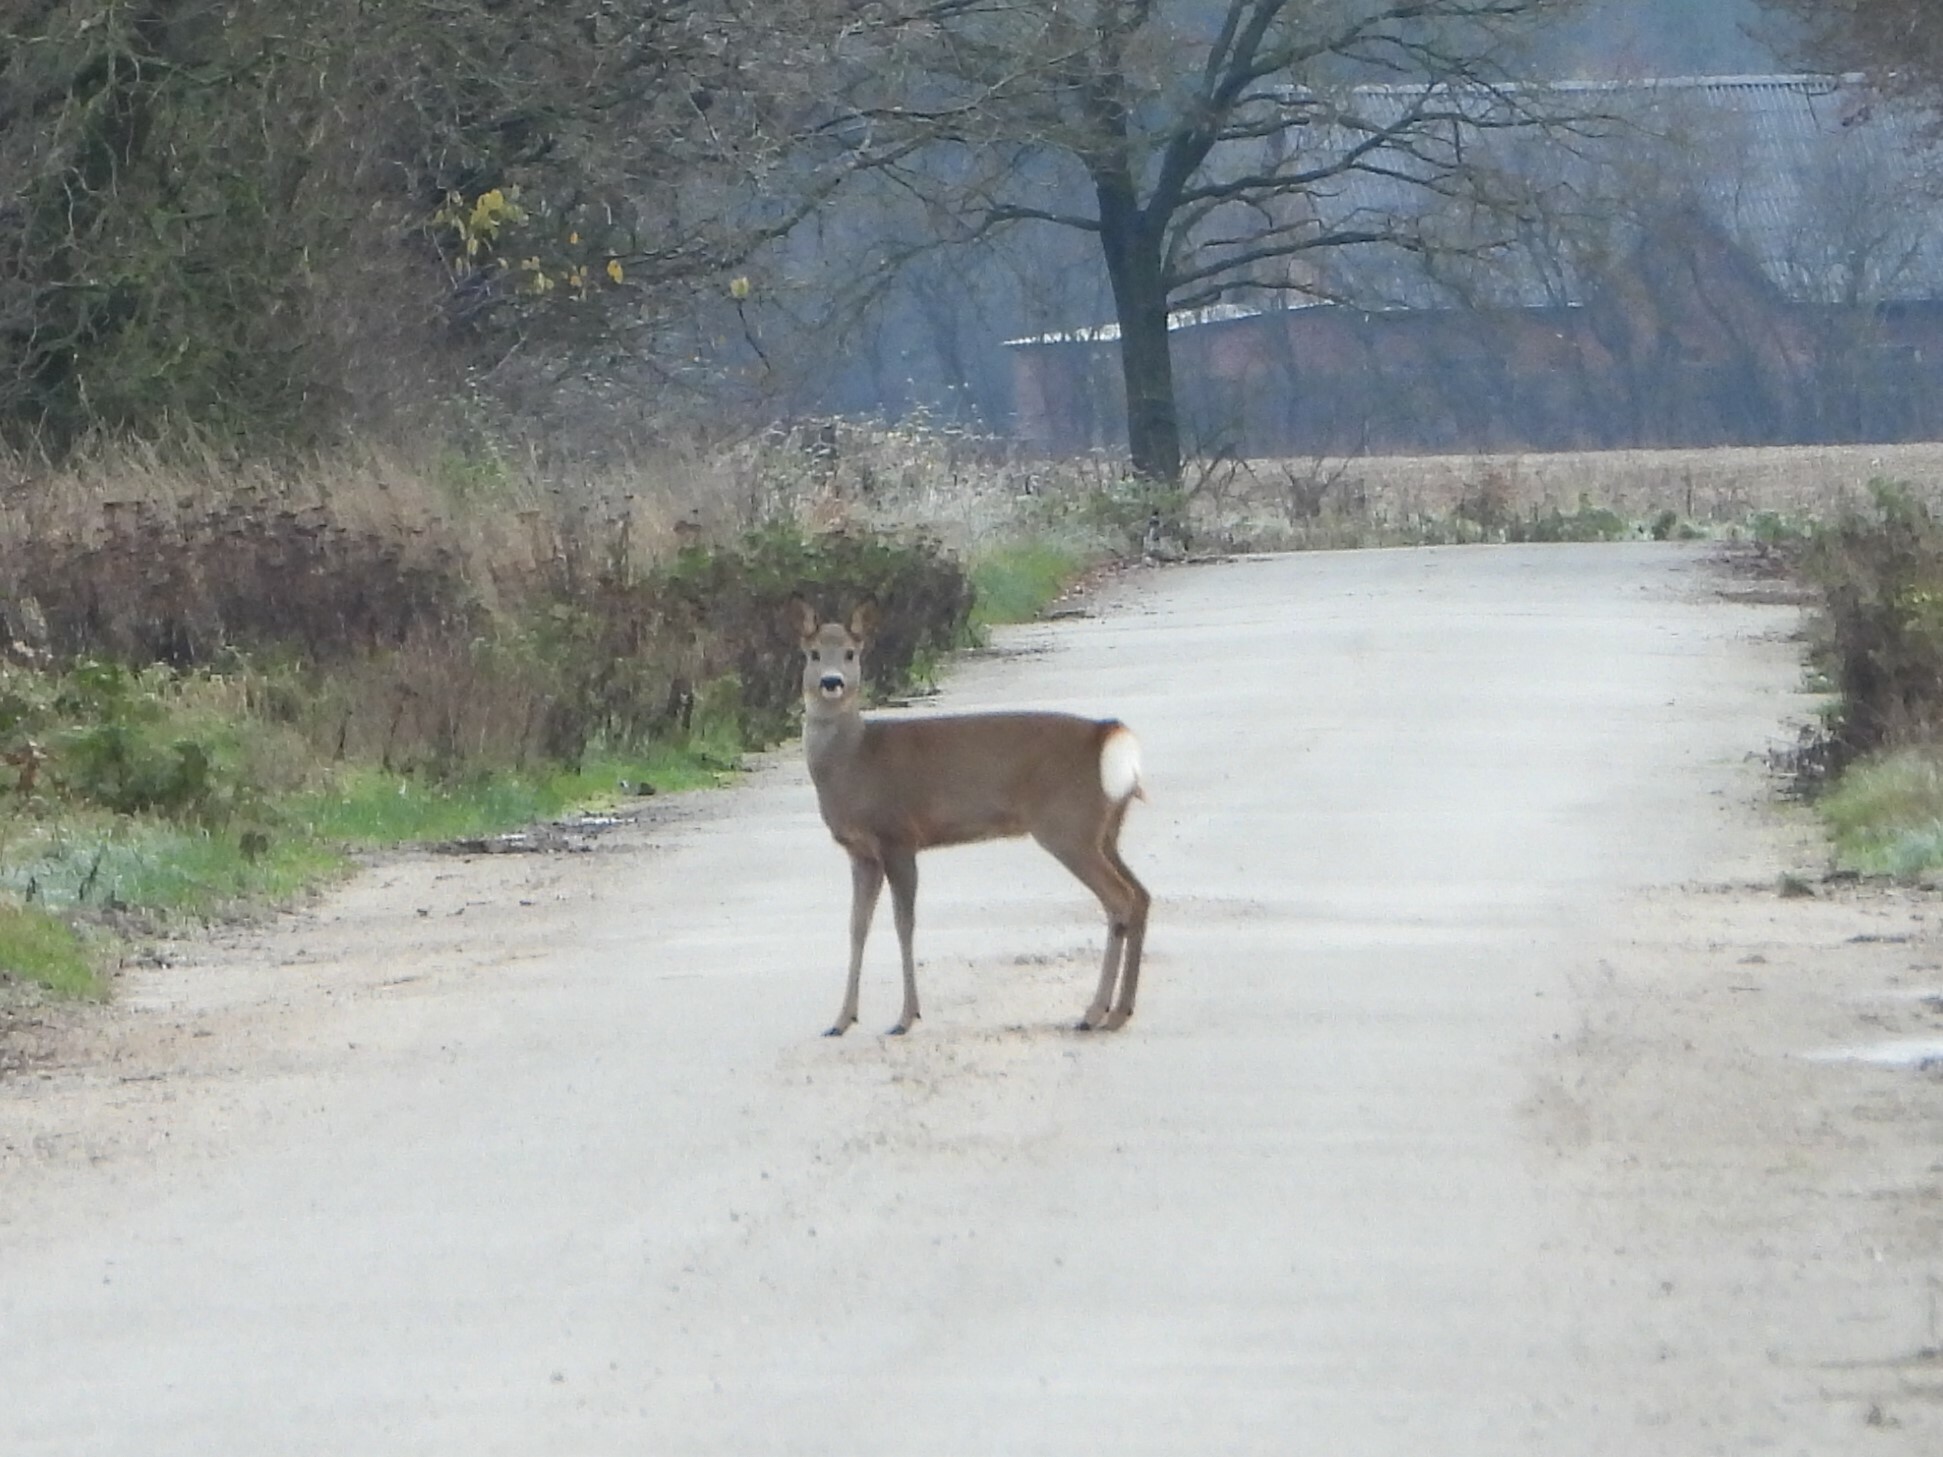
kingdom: Animalia
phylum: Chordata
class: Mammalia
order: Artiodactyla
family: Cervidae
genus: Capreolus
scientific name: Capreolus capreolus
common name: Western roe deer
